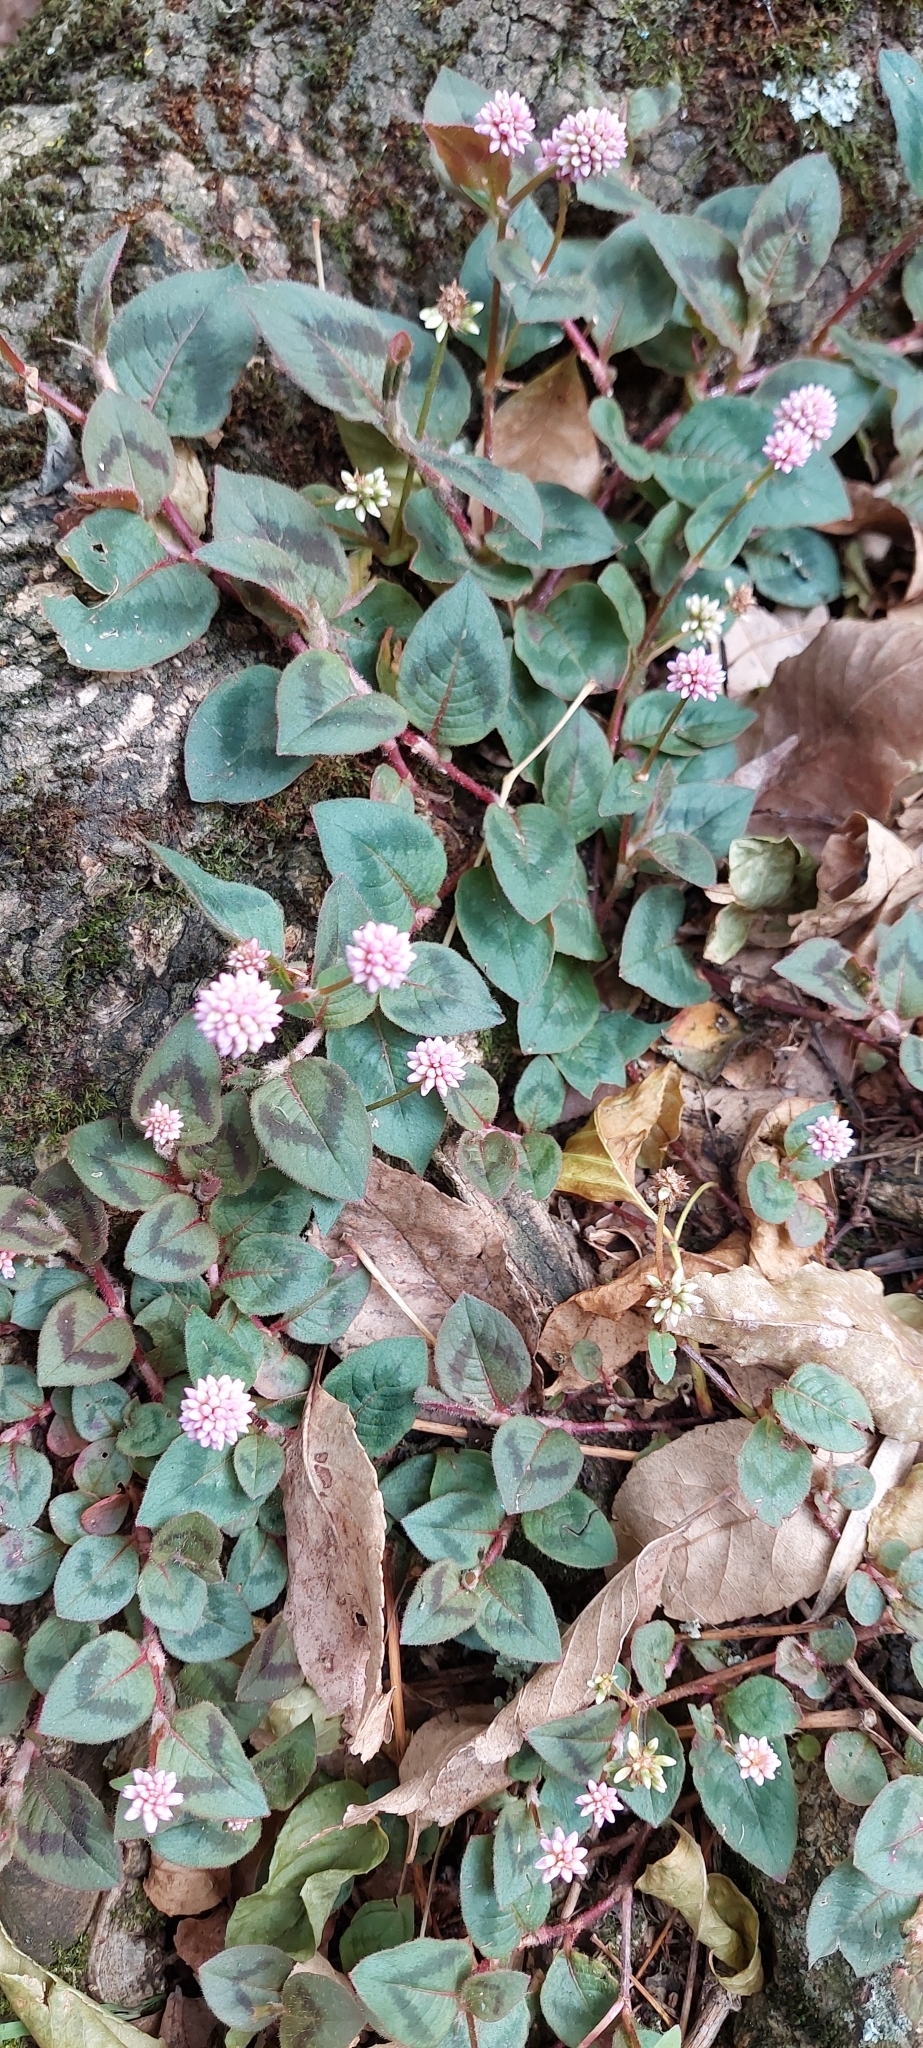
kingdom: Plantae
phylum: Tracheophyta
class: Magnoliopsida
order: Caryophyllales
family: Polygonaceae
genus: Persicaria
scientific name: Persicaria capitata
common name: Pinkhead smartweed
